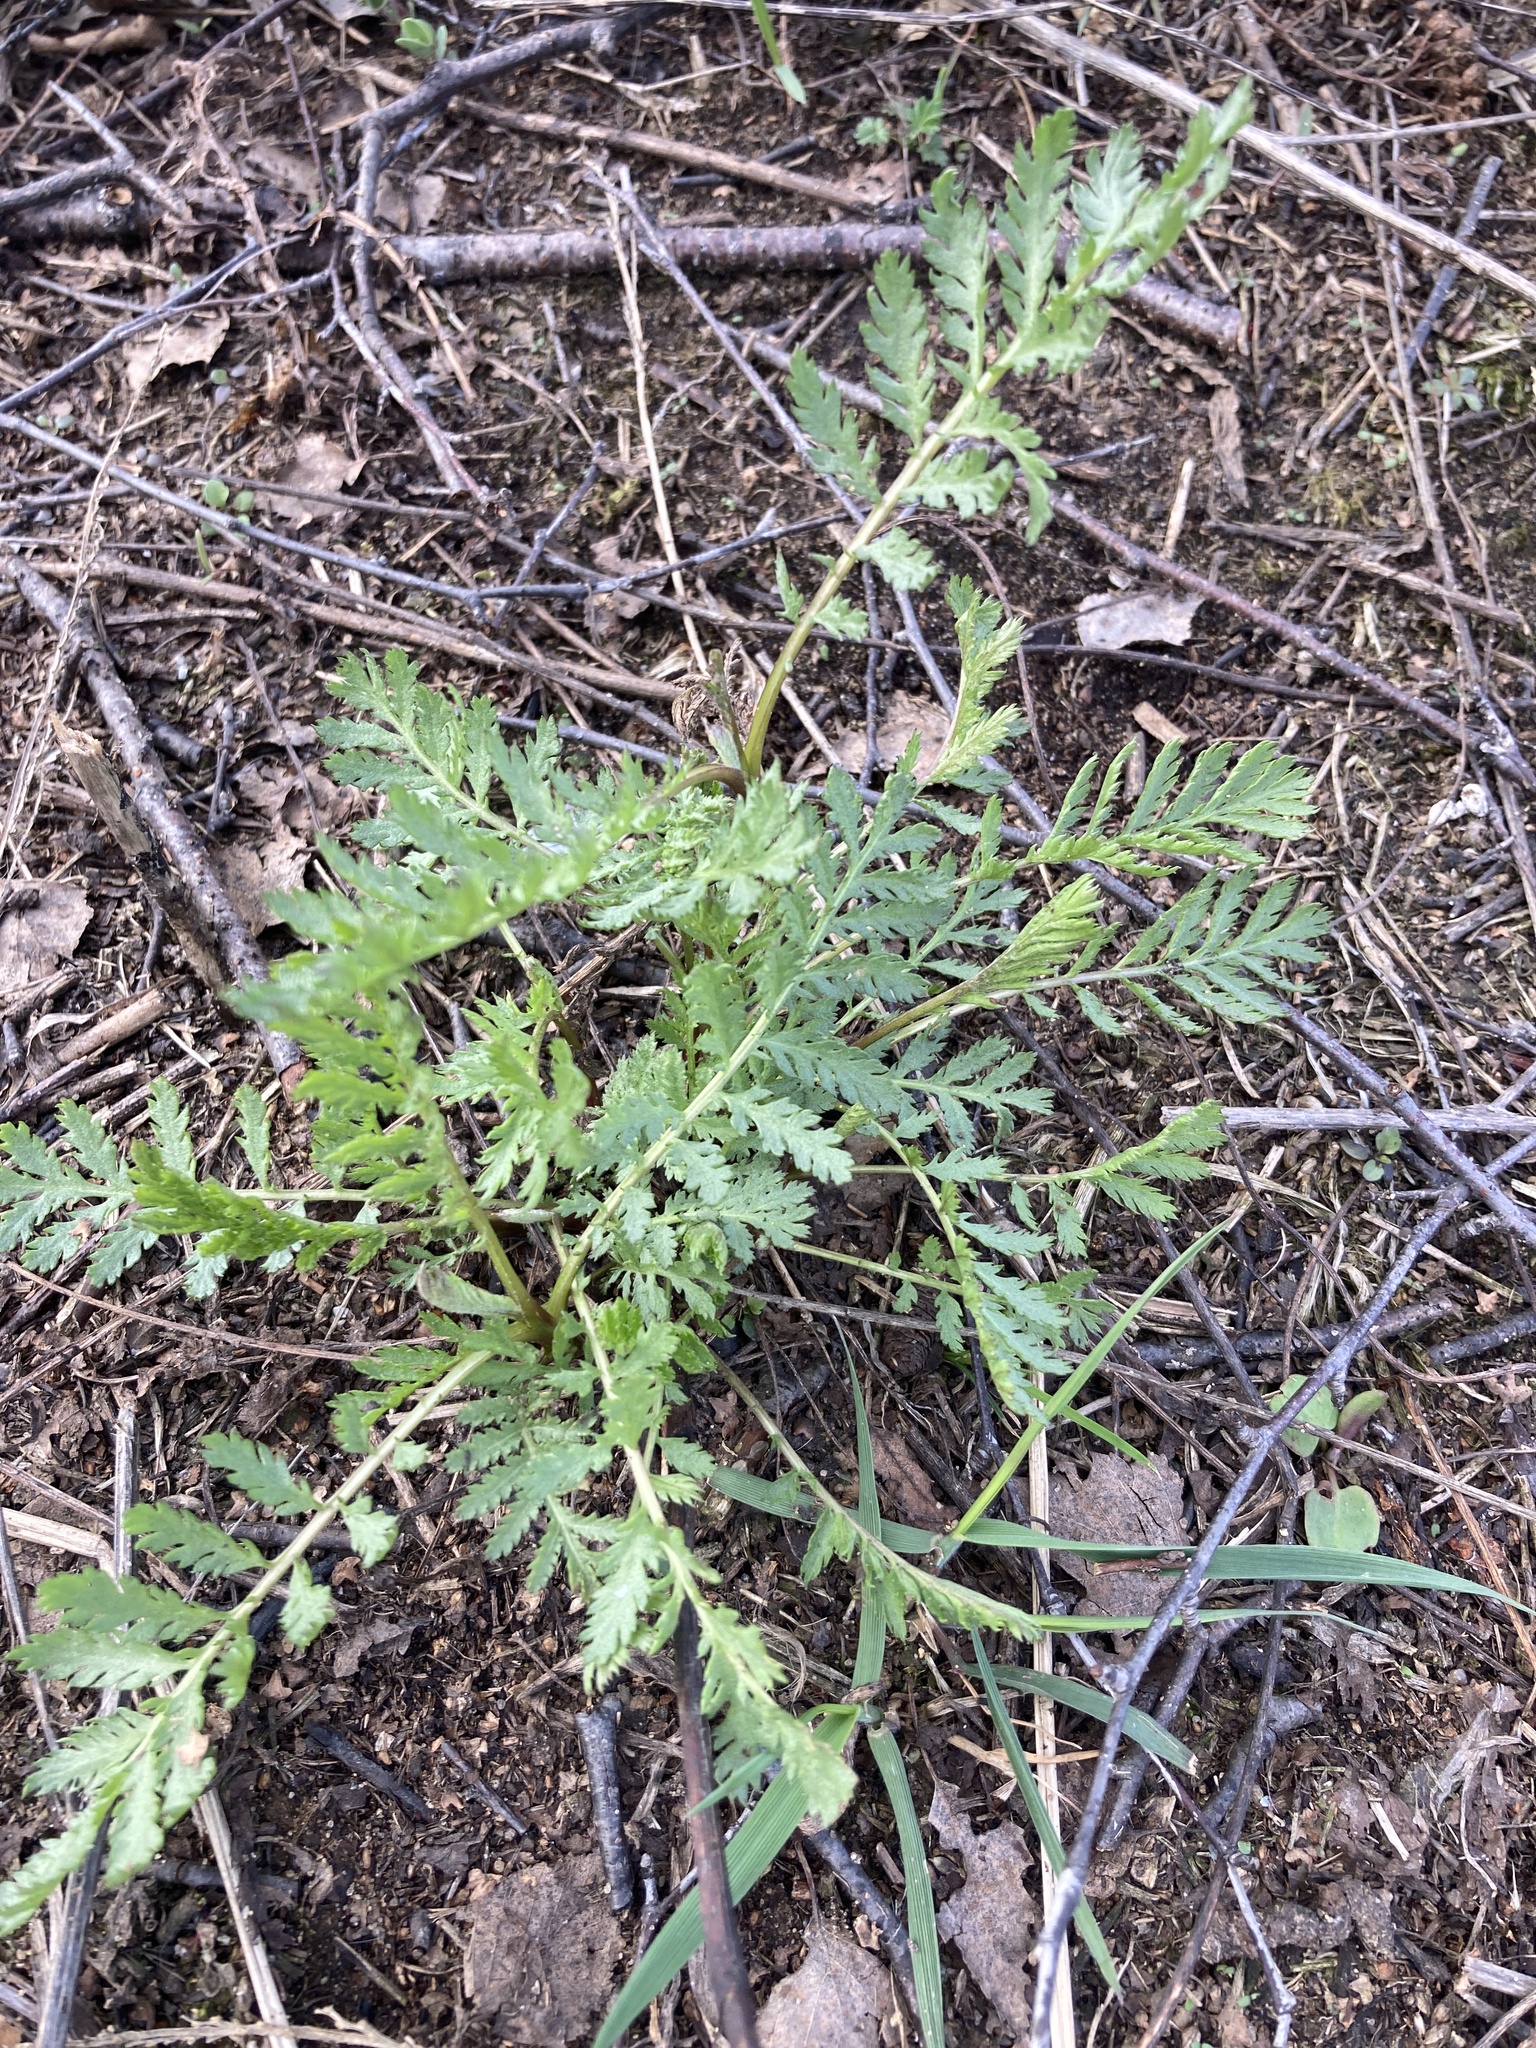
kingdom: Plantae
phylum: Tracheophyta
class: Magnoliopsida
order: Asterales
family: Asteraceae
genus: Tanacetum
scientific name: Tanacetum vulgare
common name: Common tansy
